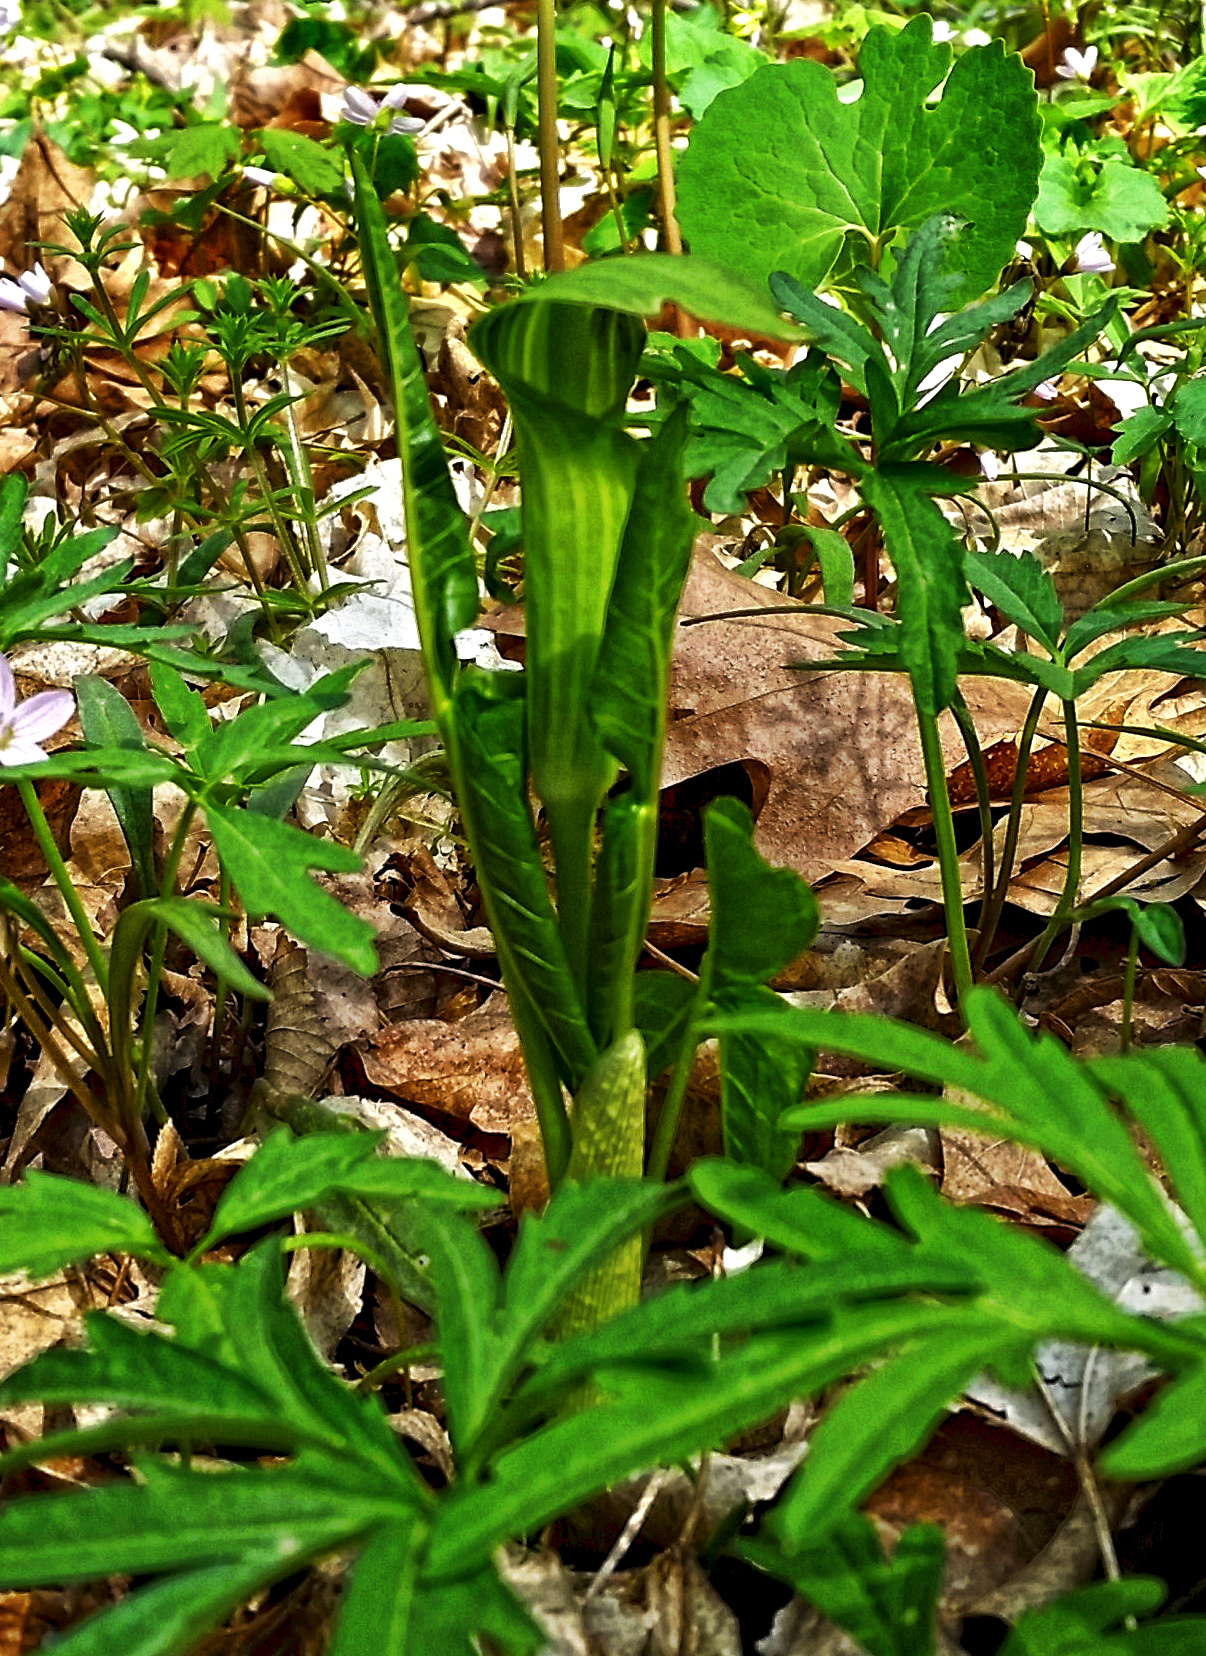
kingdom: Plantae
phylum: Tracheophyta
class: Liliopsida
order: Alismatales
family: Araceae
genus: Arisaema
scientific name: Arisaema triphyllum
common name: Jack-in-the-pulpit
